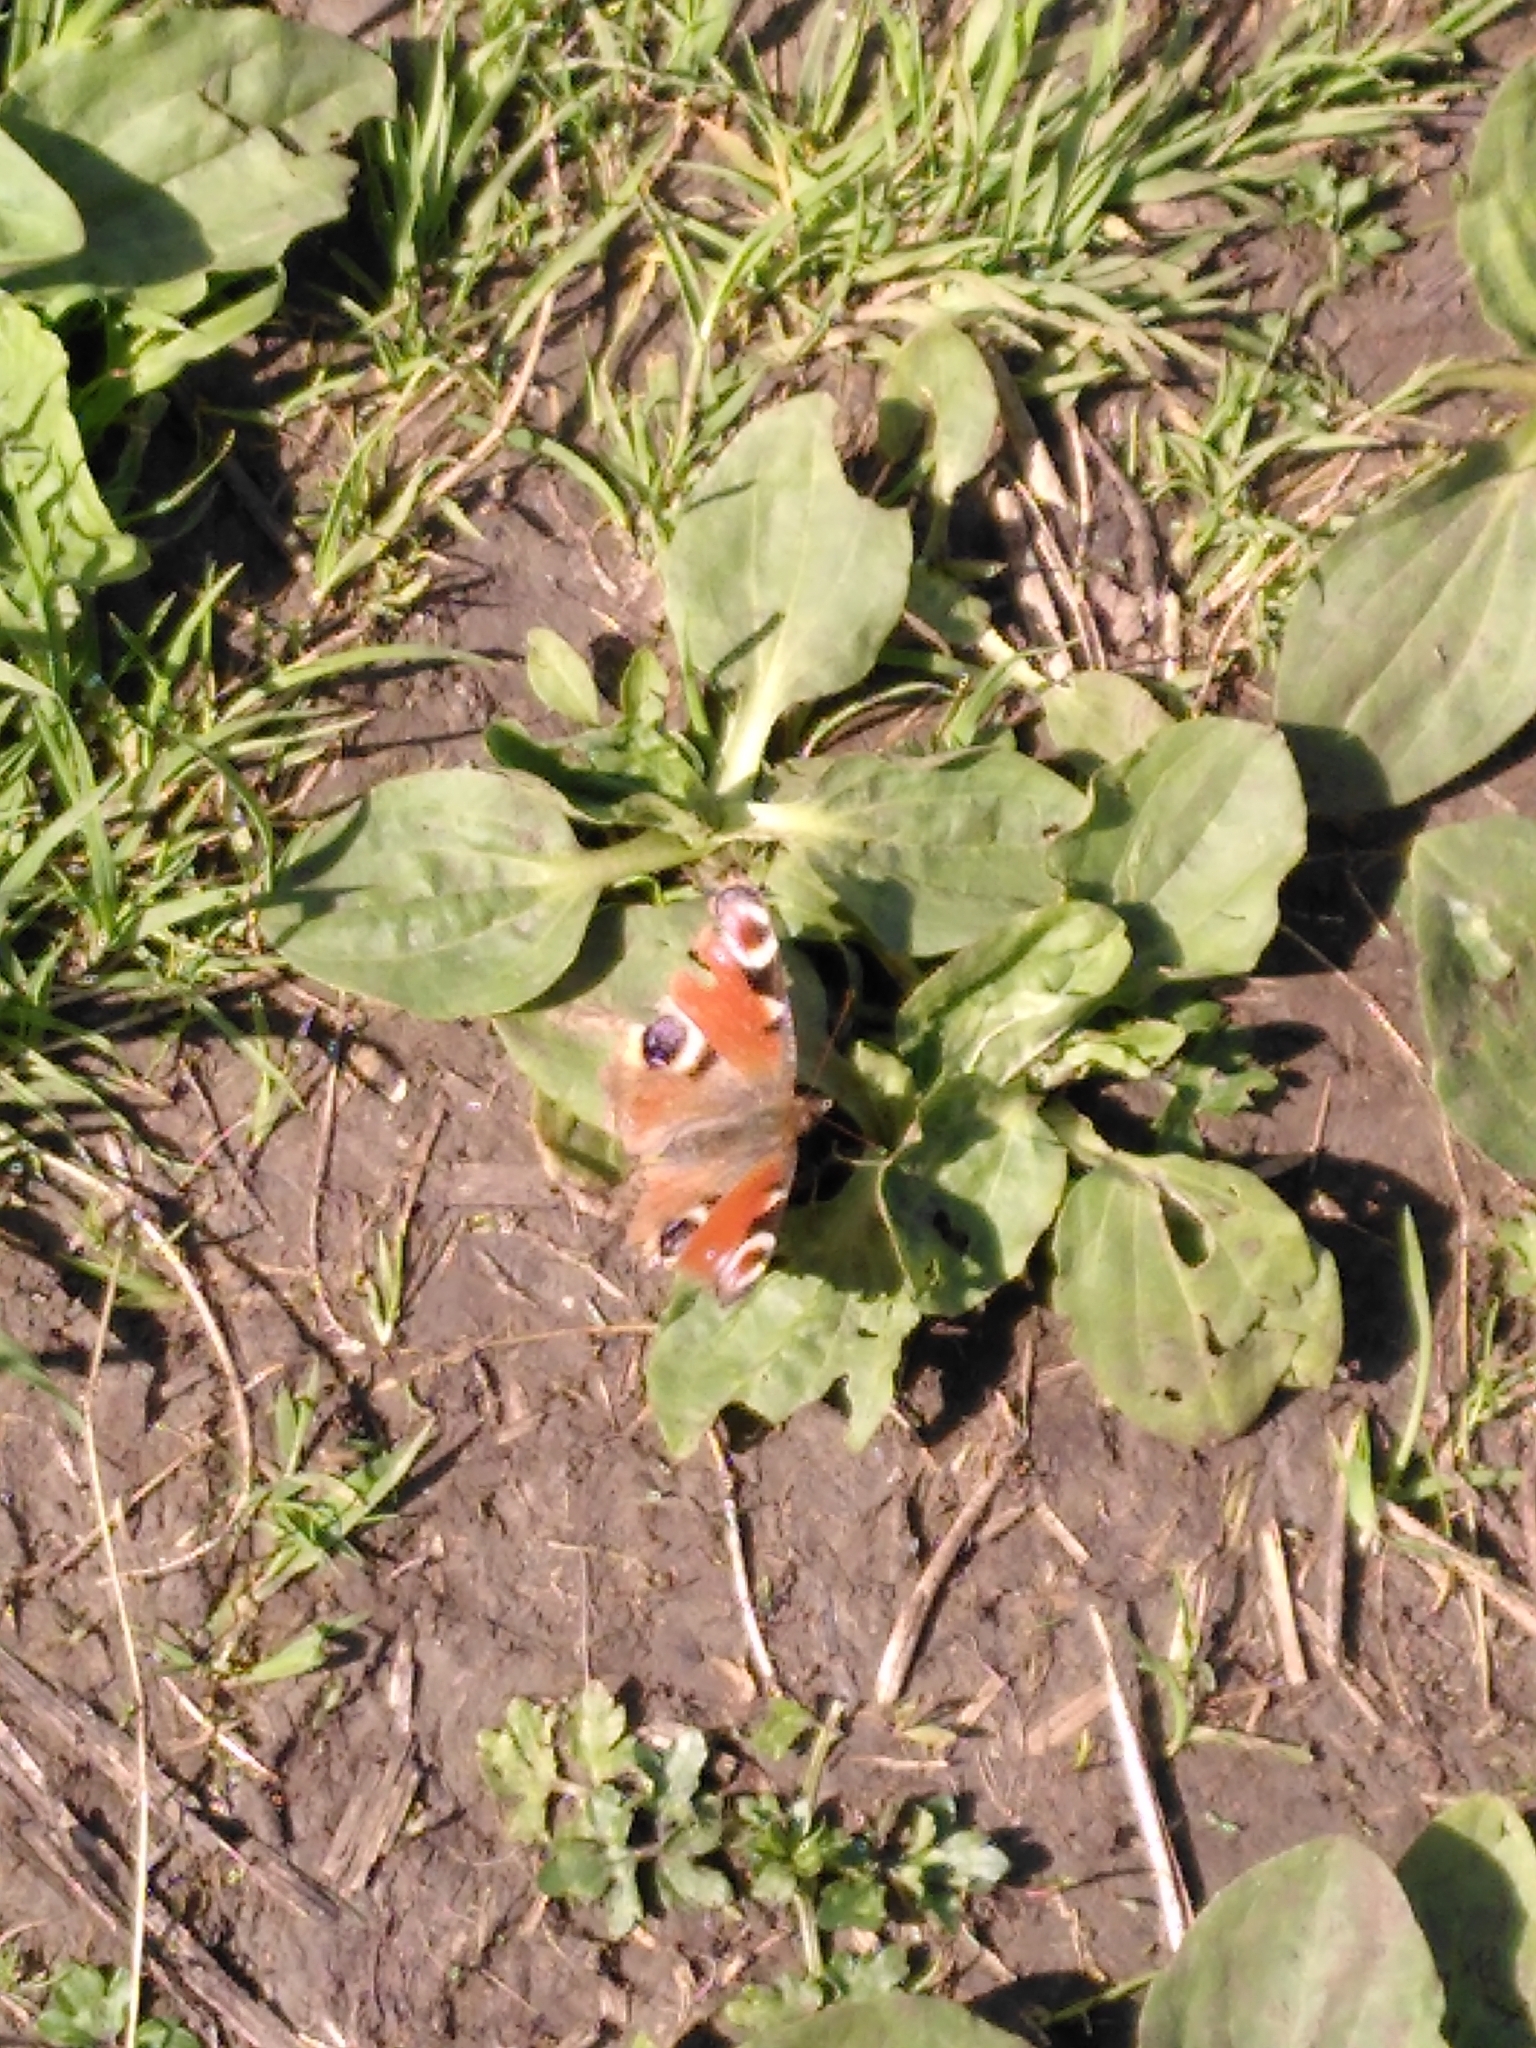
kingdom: Animalia
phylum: Arthropoda
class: Insecta
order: Lepidoptera
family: Nymphalidae
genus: Aglais
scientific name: Aglais io
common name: Peacock
